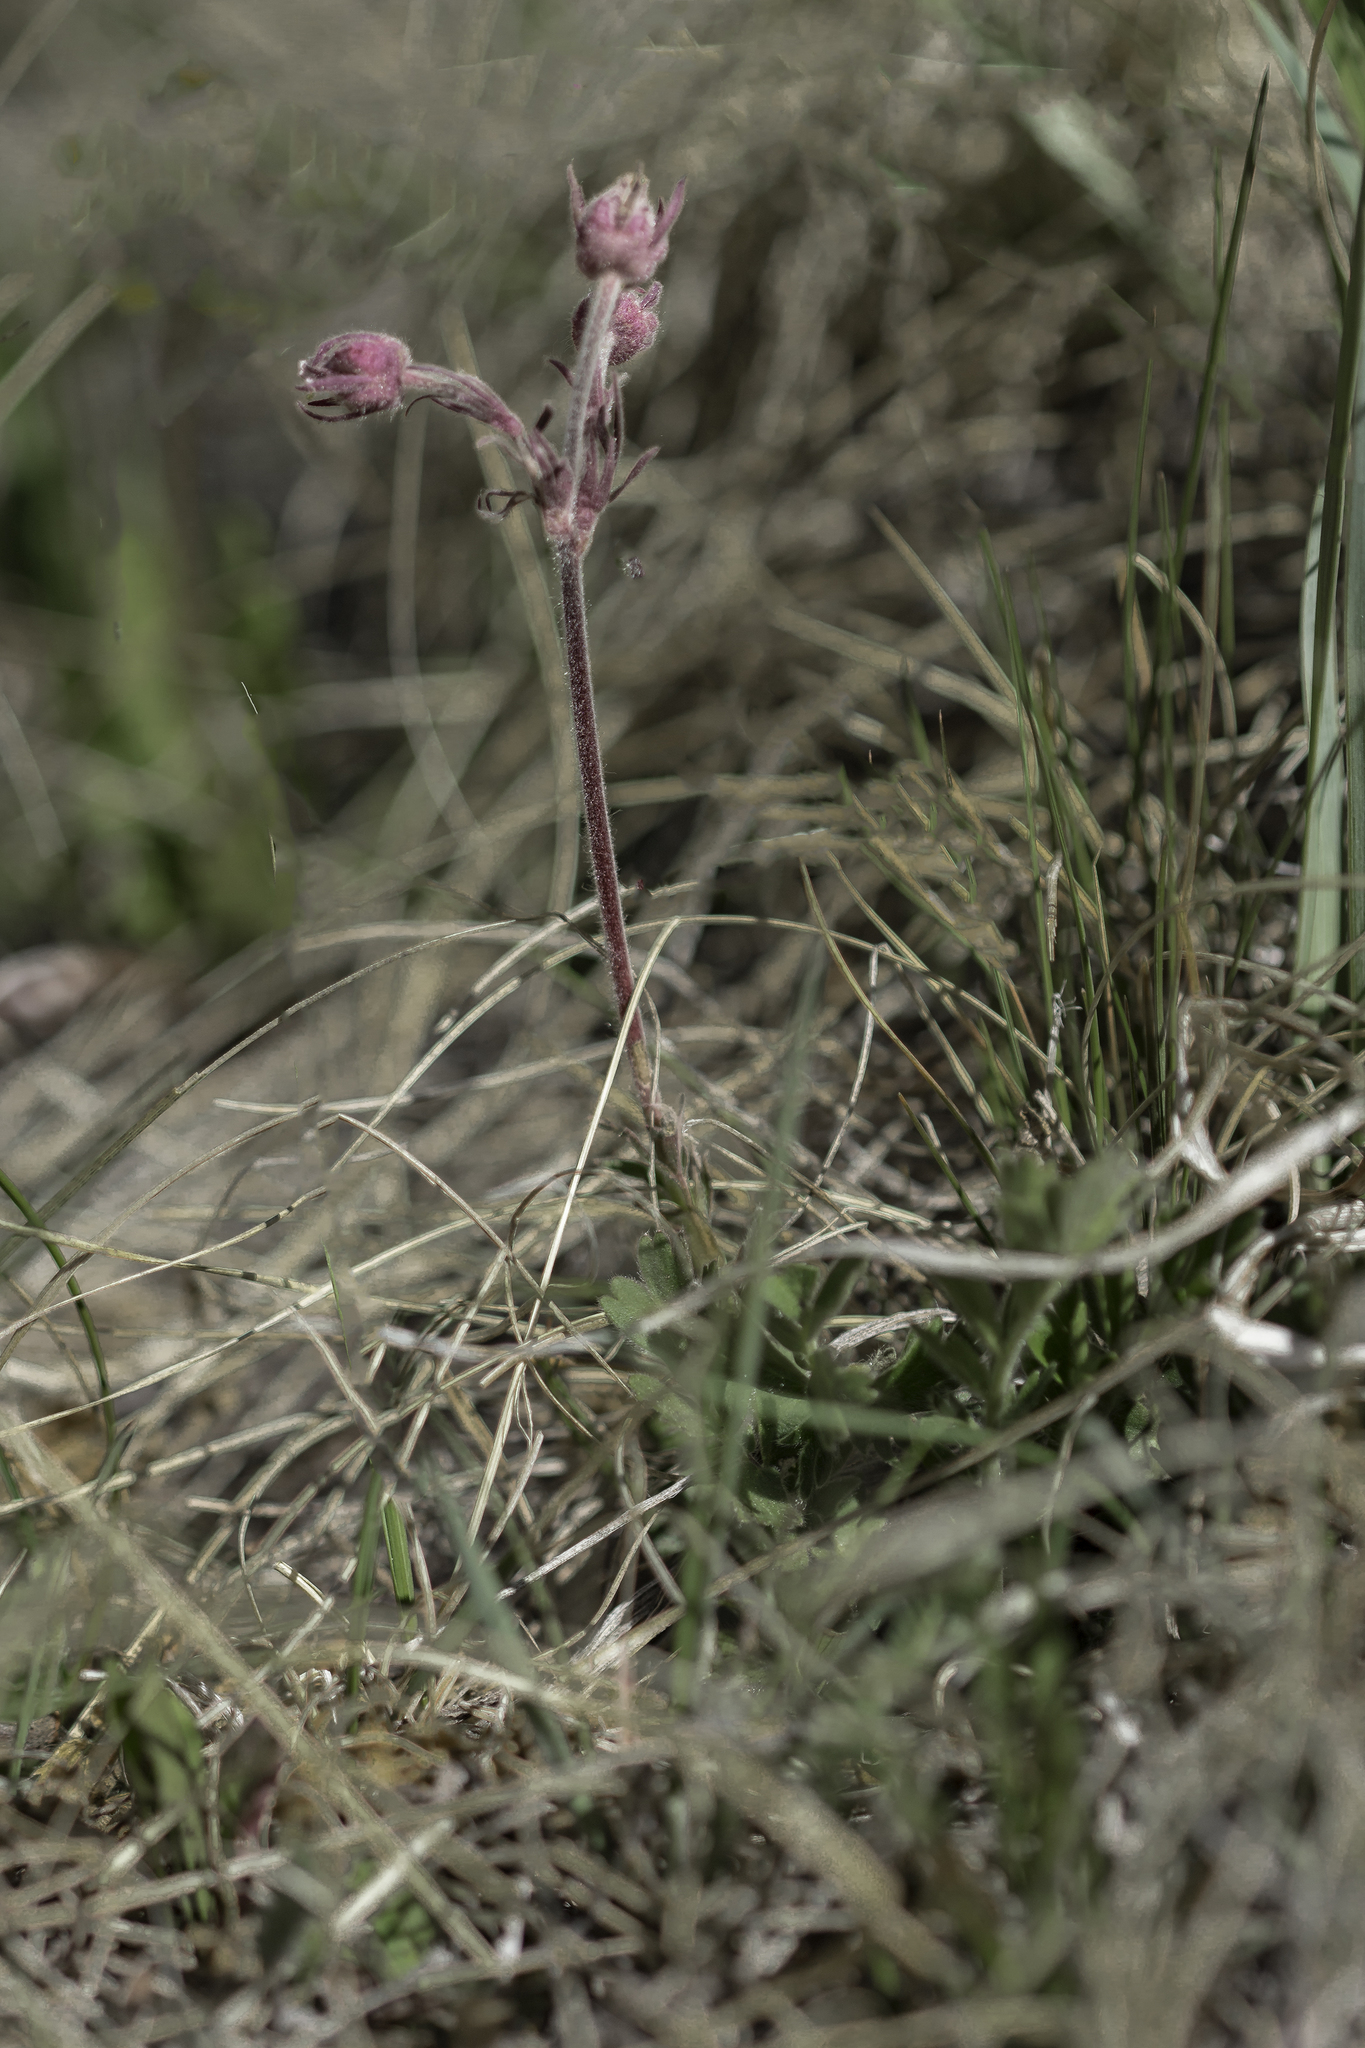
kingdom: Plantae
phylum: Tracheophyta
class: Magnoliopsida
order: Rosales
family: Rosaceae
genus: Geum
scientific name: Geum triflorum
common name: Old man's whiskers
